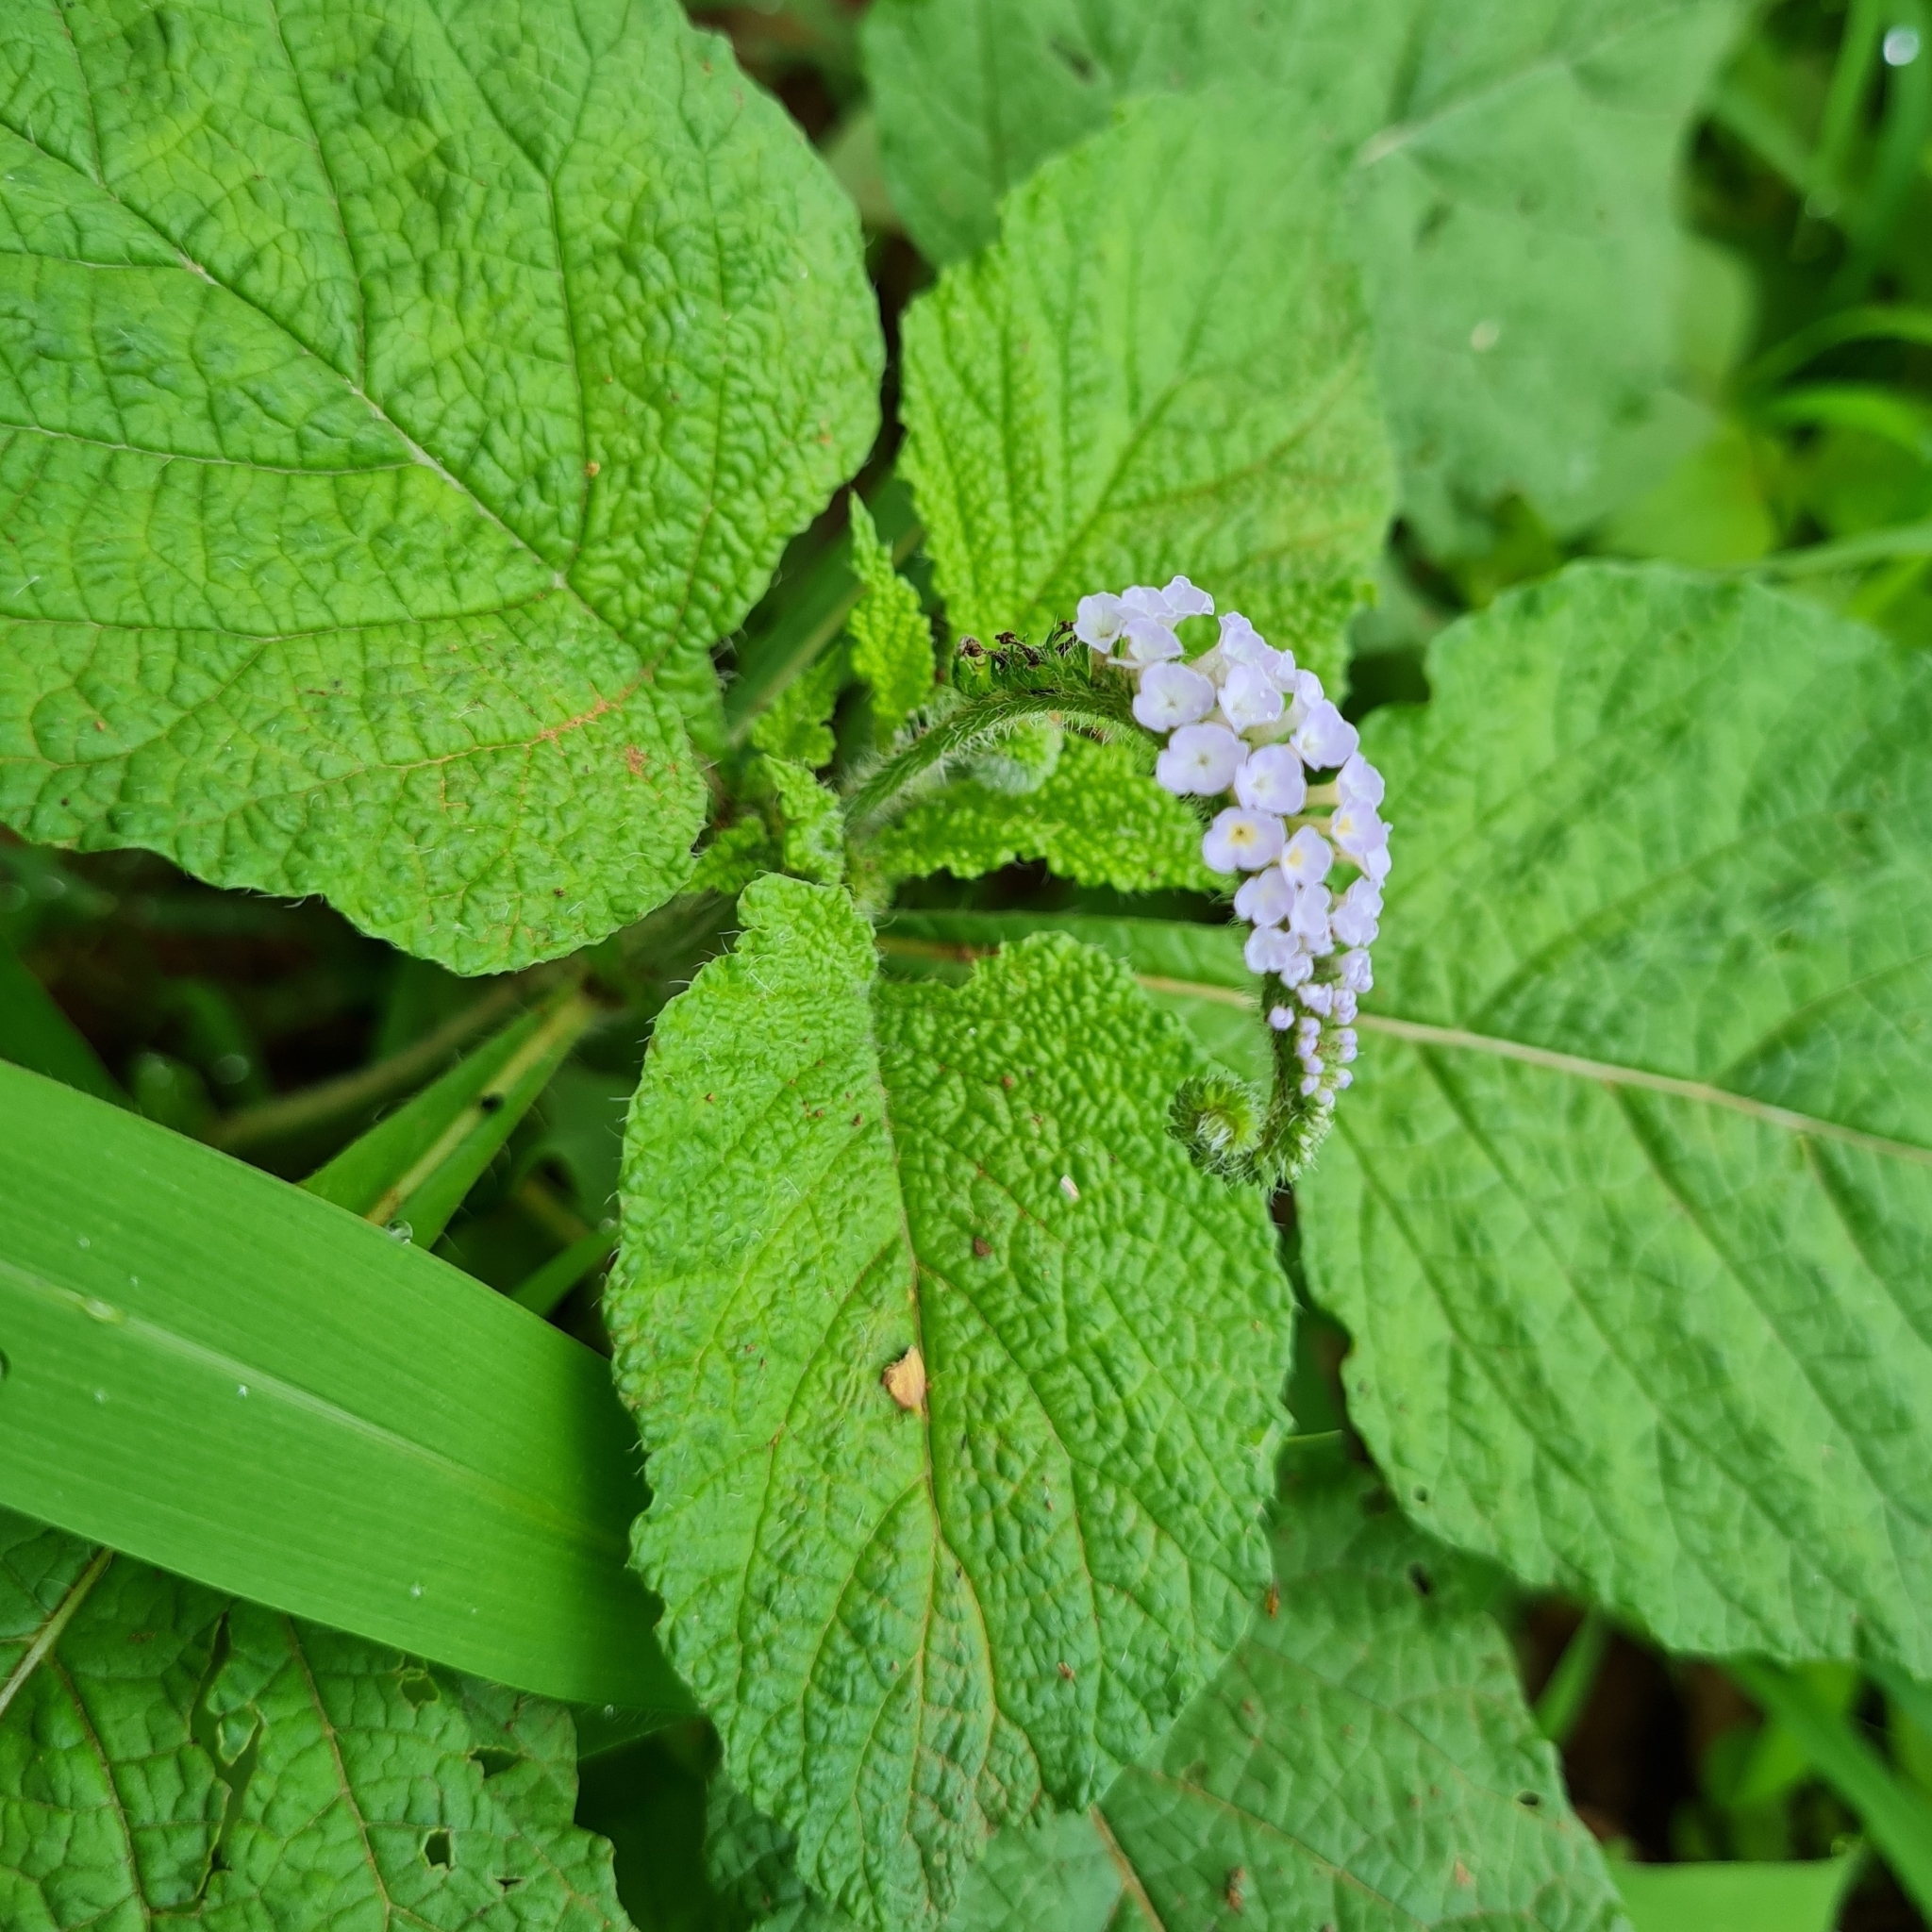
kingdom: Plantae
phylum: Tracheophyta
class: Magnoliopsida
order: Boraginales
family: Heliotropiaceae
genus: Heliotropium
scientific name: Heliotropium indicum
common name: Indian heliotrope
